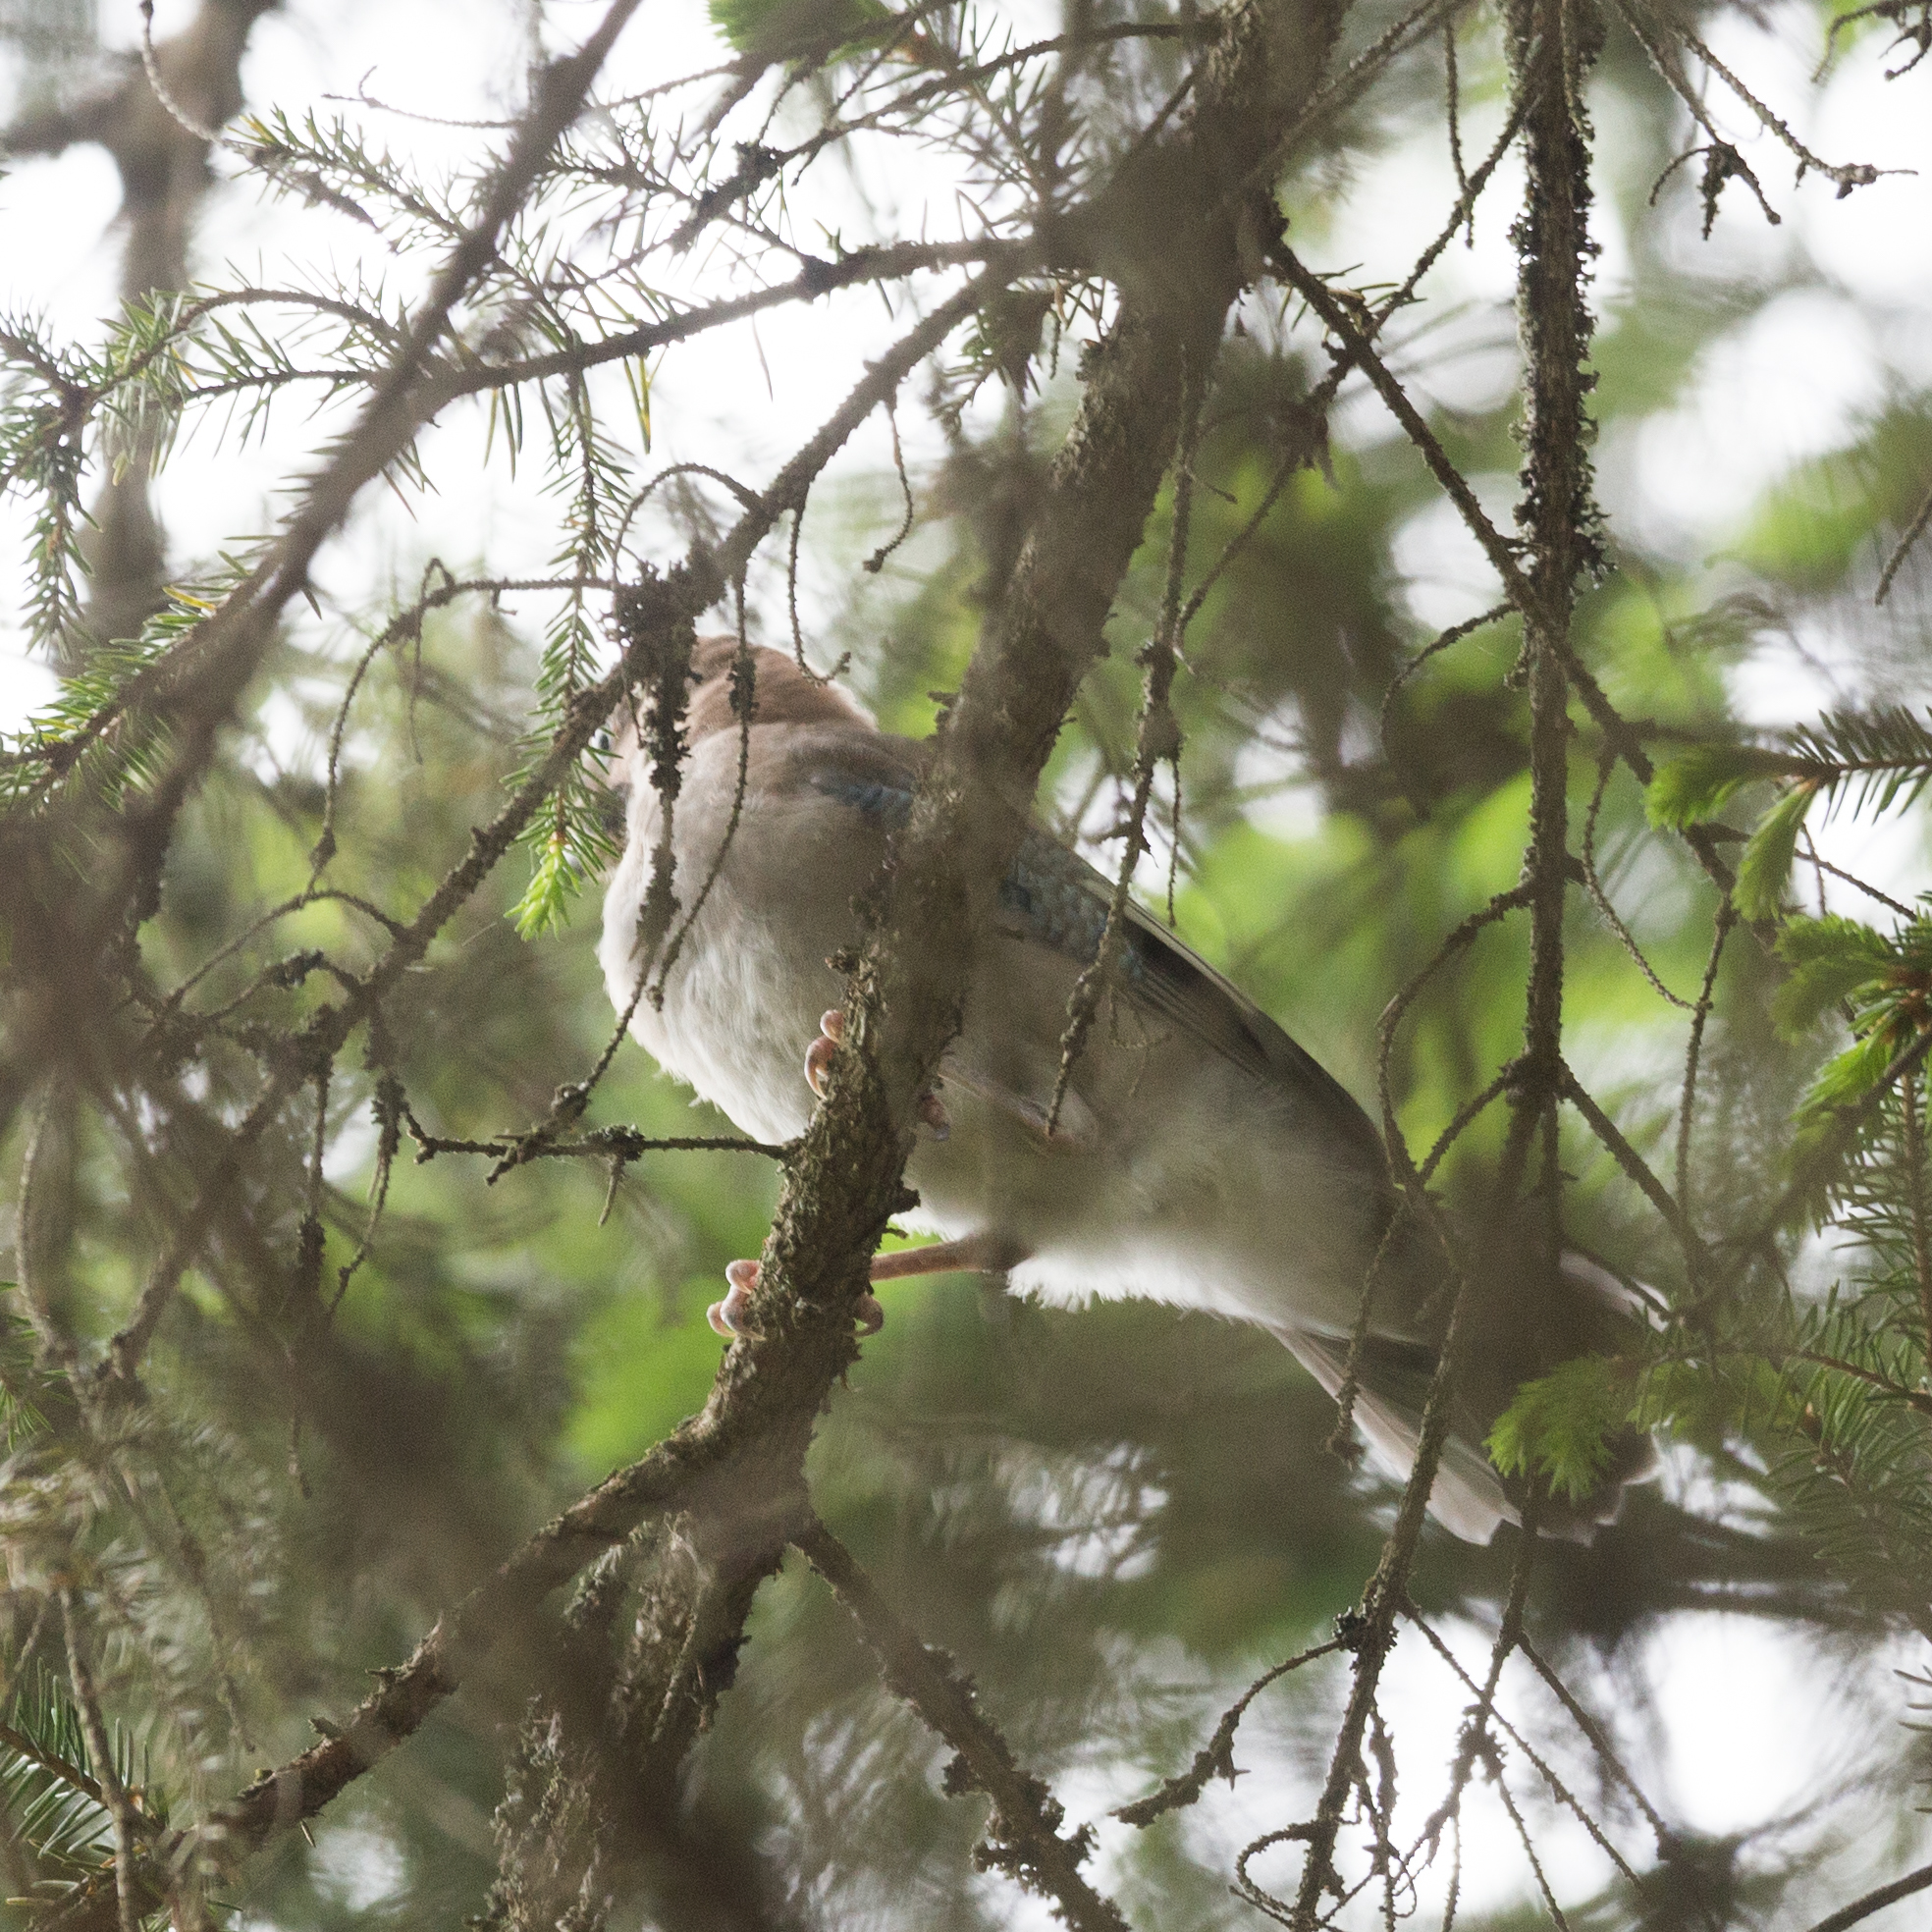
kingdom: Animalia
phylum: Chordata
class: Aves
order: Passeriformes
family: Corvidae
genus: Garrulus
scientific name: Garrulus glandarius
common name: Eurasian jay
